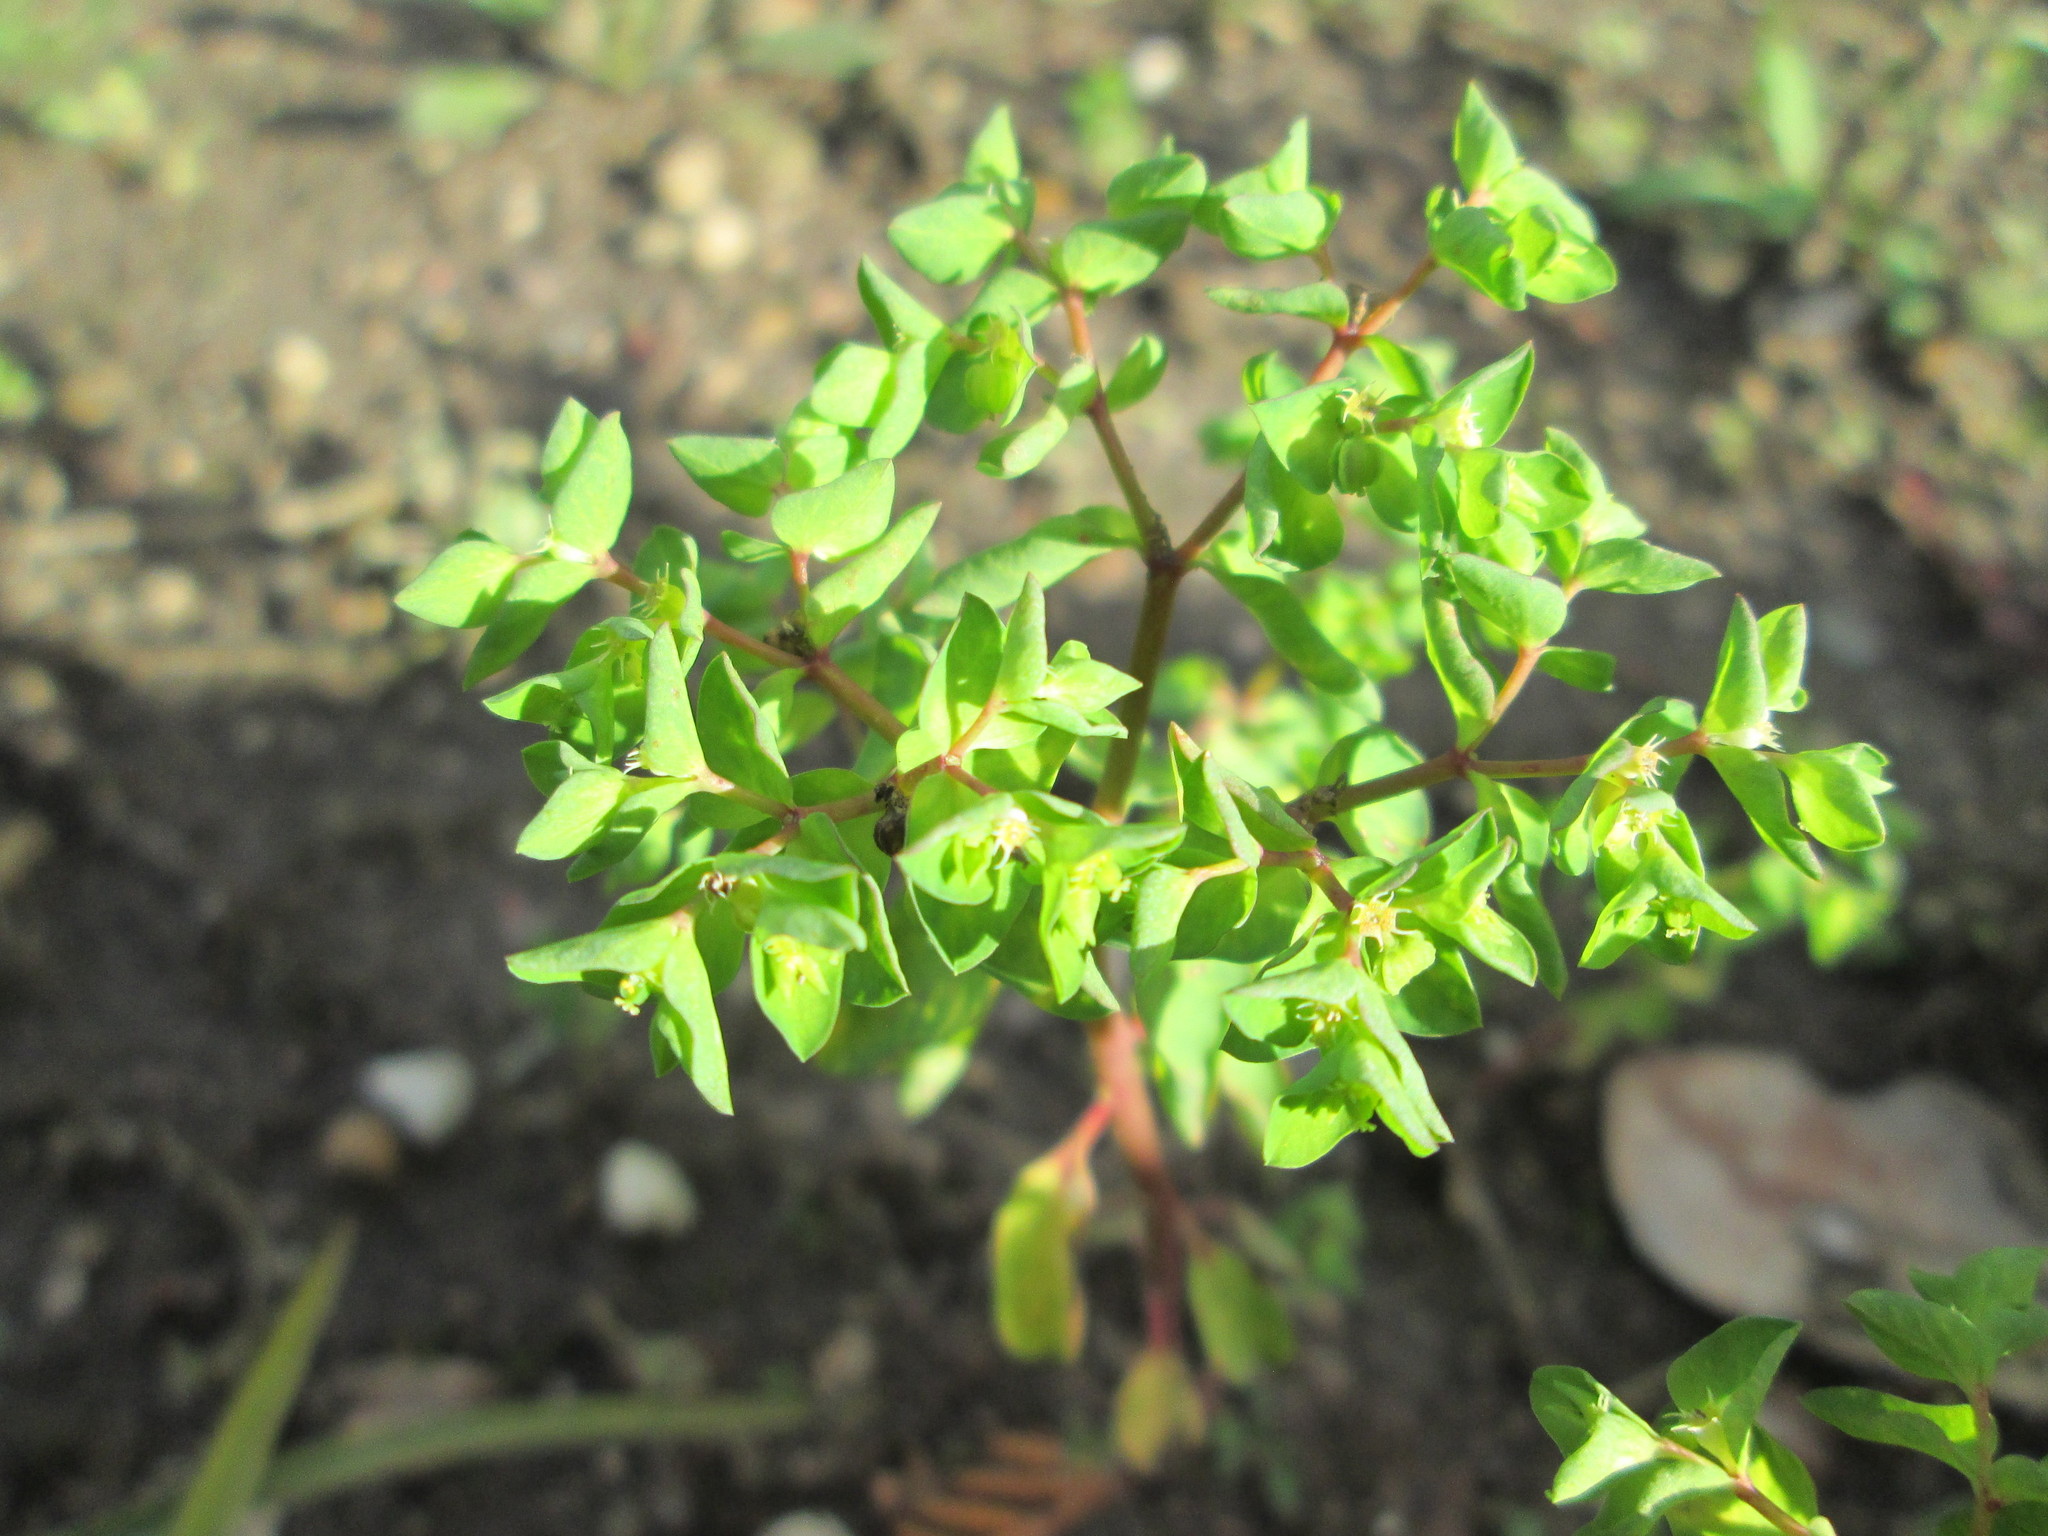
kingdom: Plantae
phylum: Tracheophyta
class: Magnoliopsida
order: Malpighiales
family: Euphorbiaceae
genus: Euphorbia
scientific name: Euphorbia peplus
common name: Petty spurge
